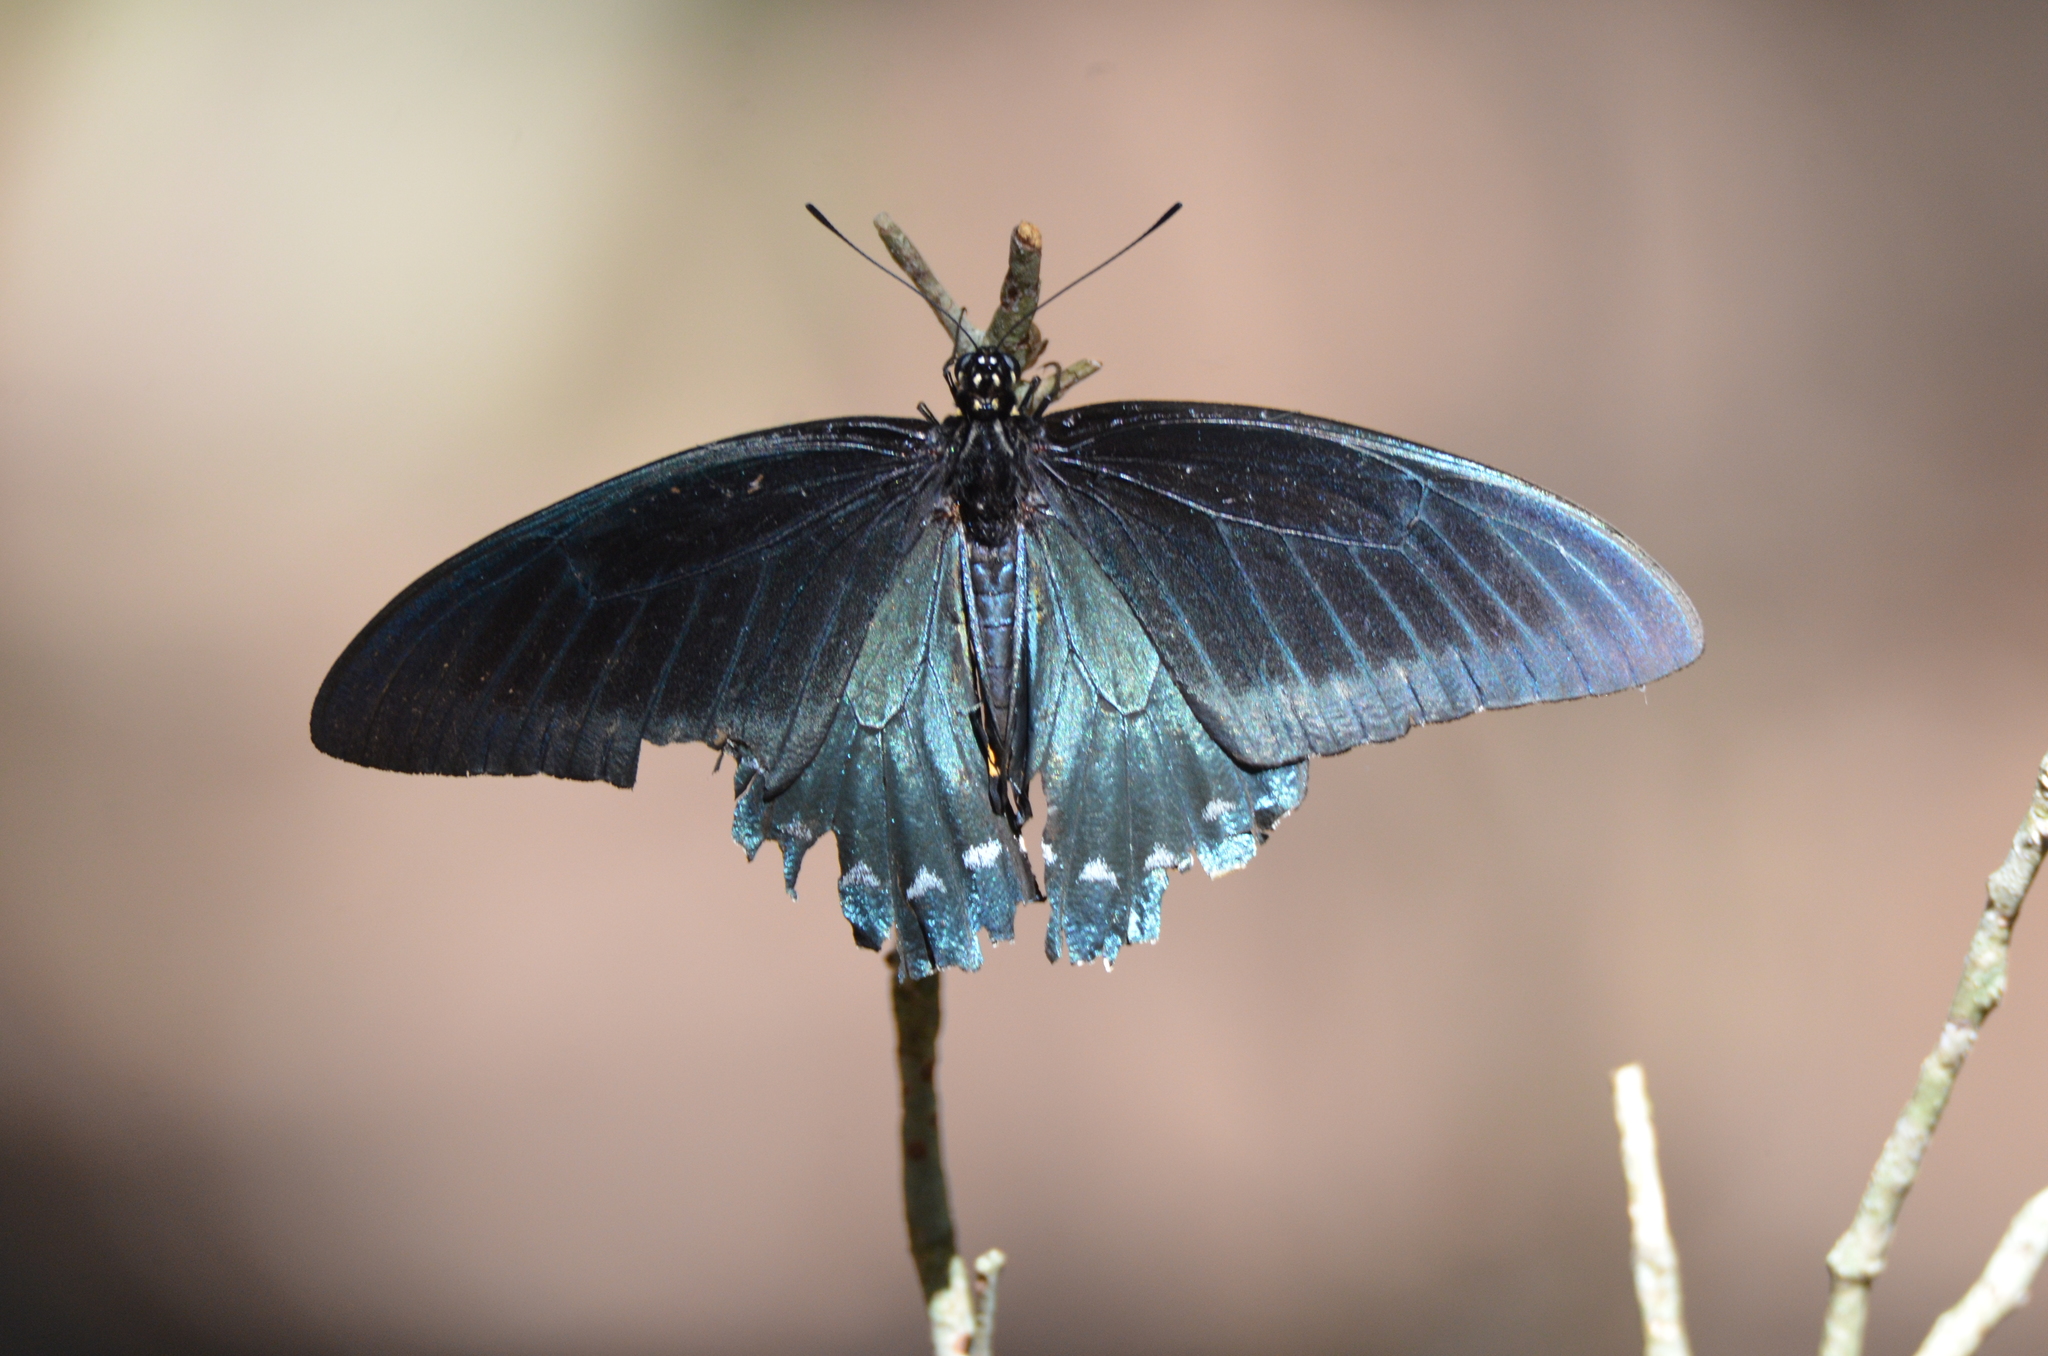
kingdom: Animalia
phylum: Arthropoda
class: Insecta
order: Lepidoptera
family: Papilionidae
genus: Battus
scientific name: Battus philenor
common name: Pipevine swallowtail
